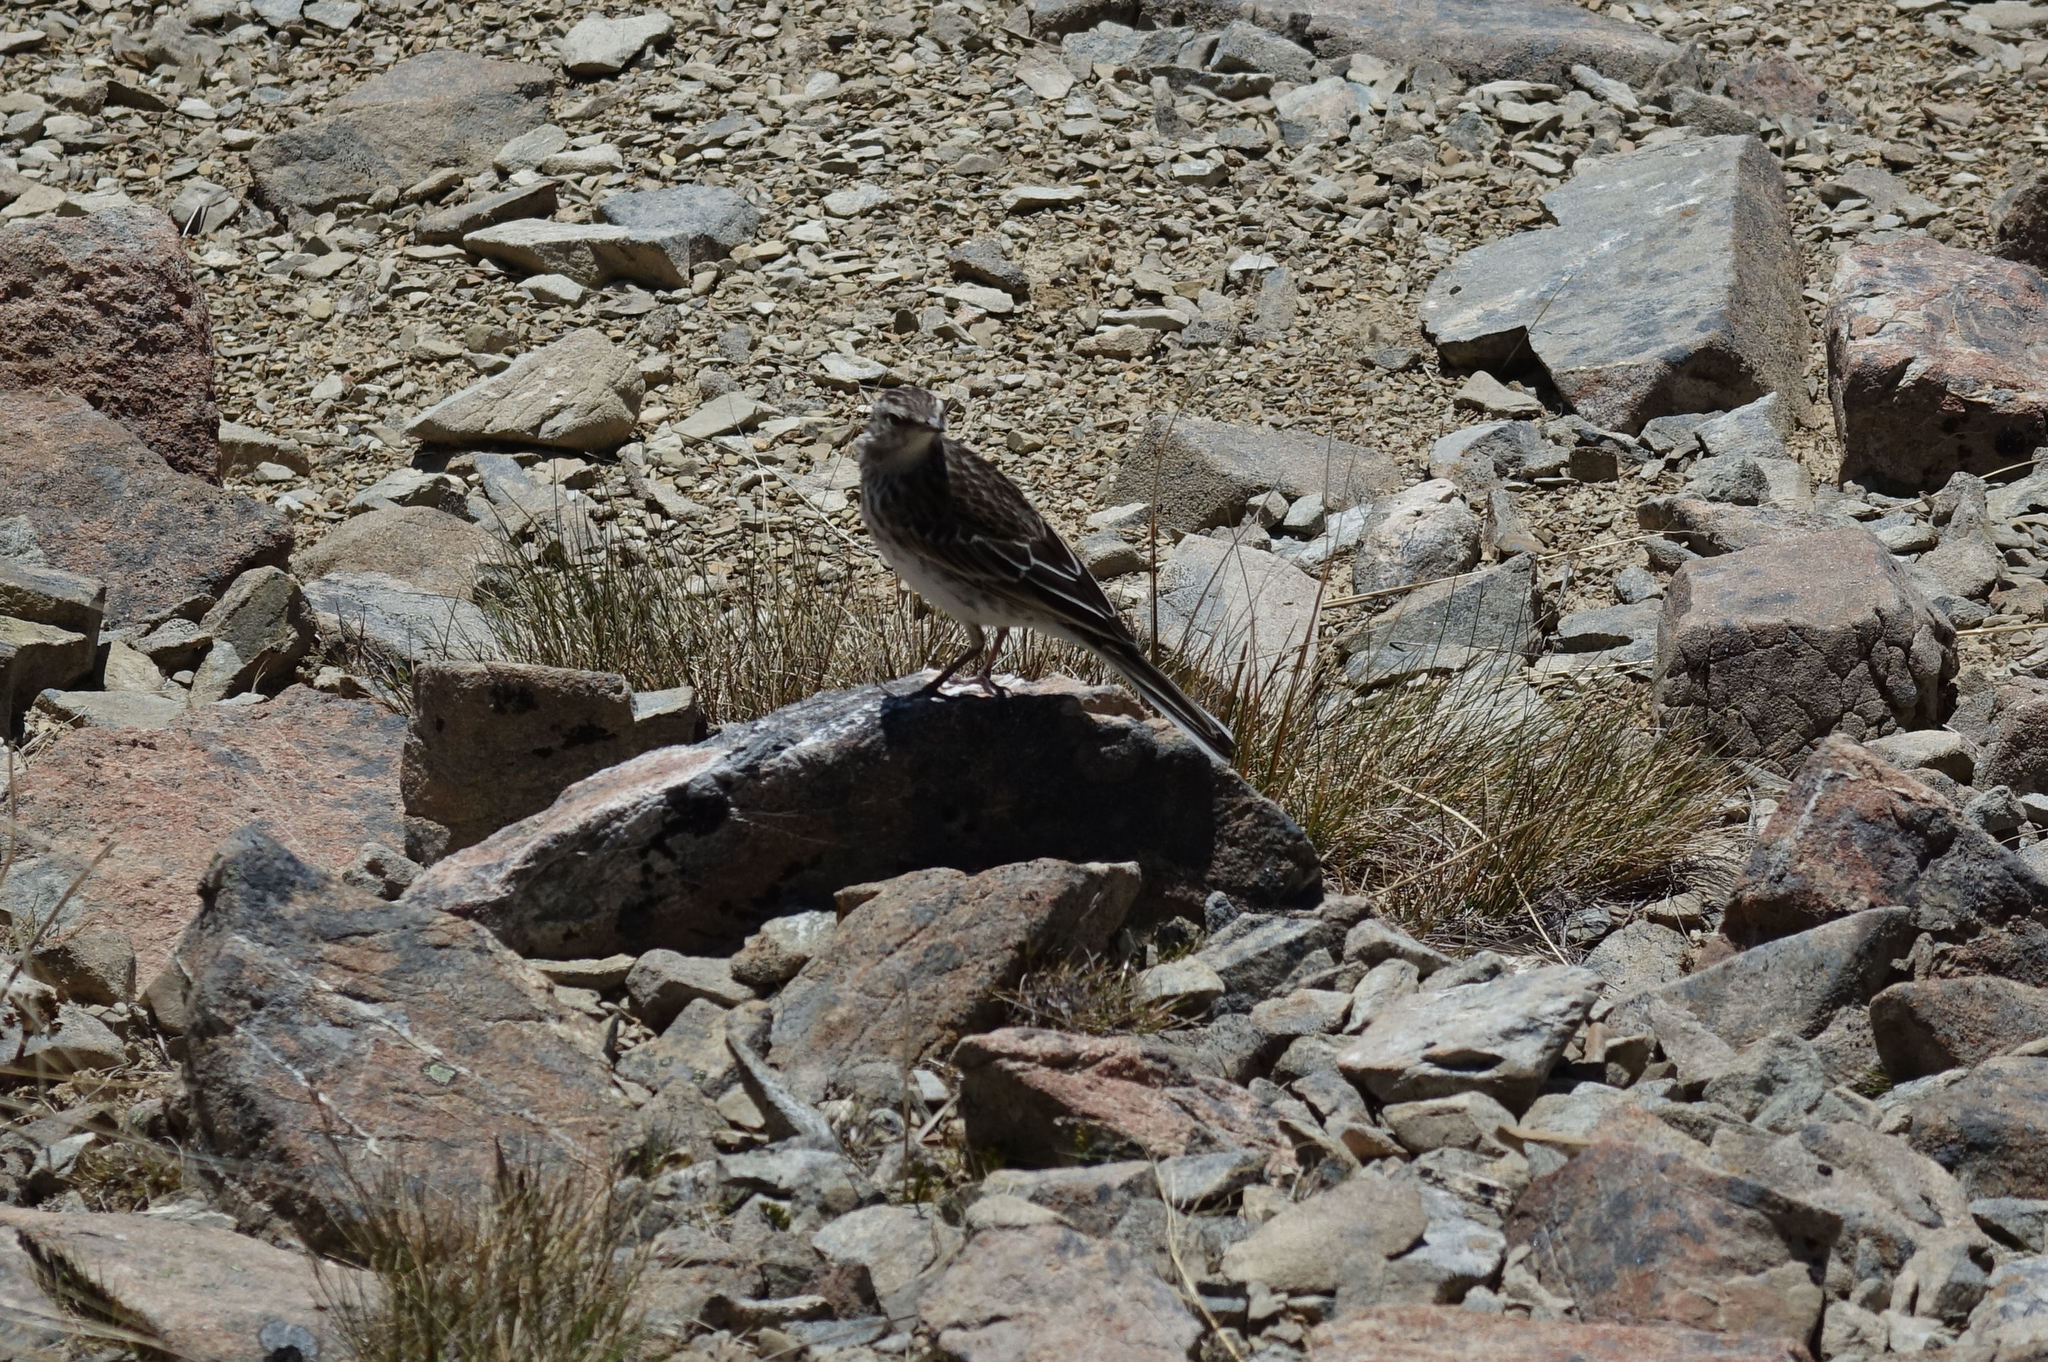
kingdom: Animalia
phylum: Chordata
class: Aves
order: Passeriformes
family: Motacillidae
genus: Anthus
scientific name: Anthus novaeseelandiae
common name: New zealand pipit
